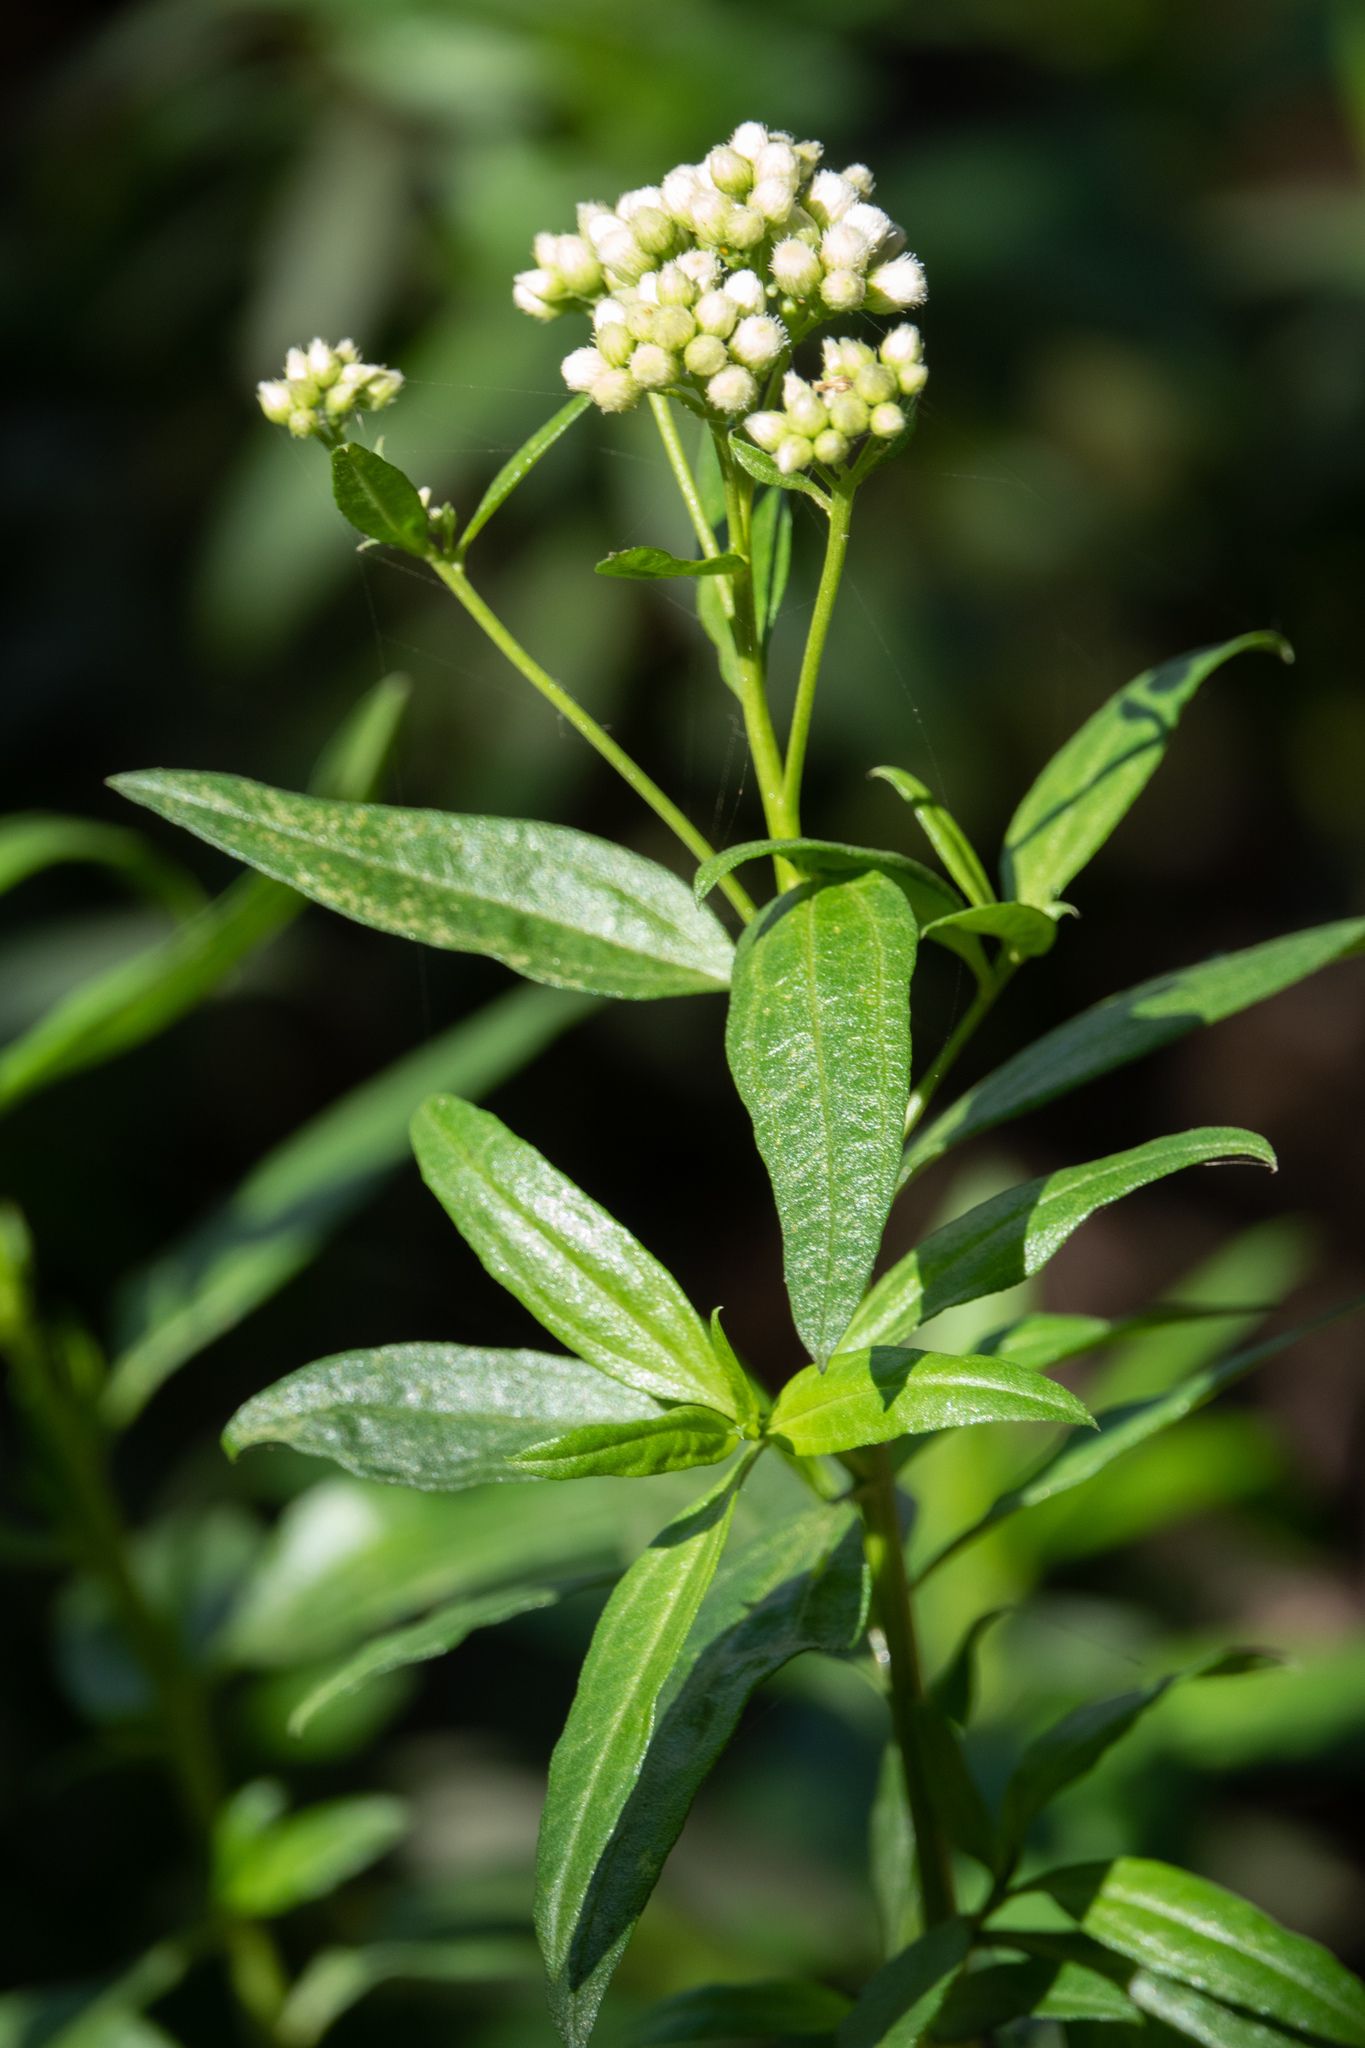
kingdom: Plantae
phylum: Tracheophyta
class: Magnoliopsida
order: Asterales
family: Asteraceae
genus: Baccharis
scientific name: Baccharis glutinosa
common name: Saltmarsh baccharis
